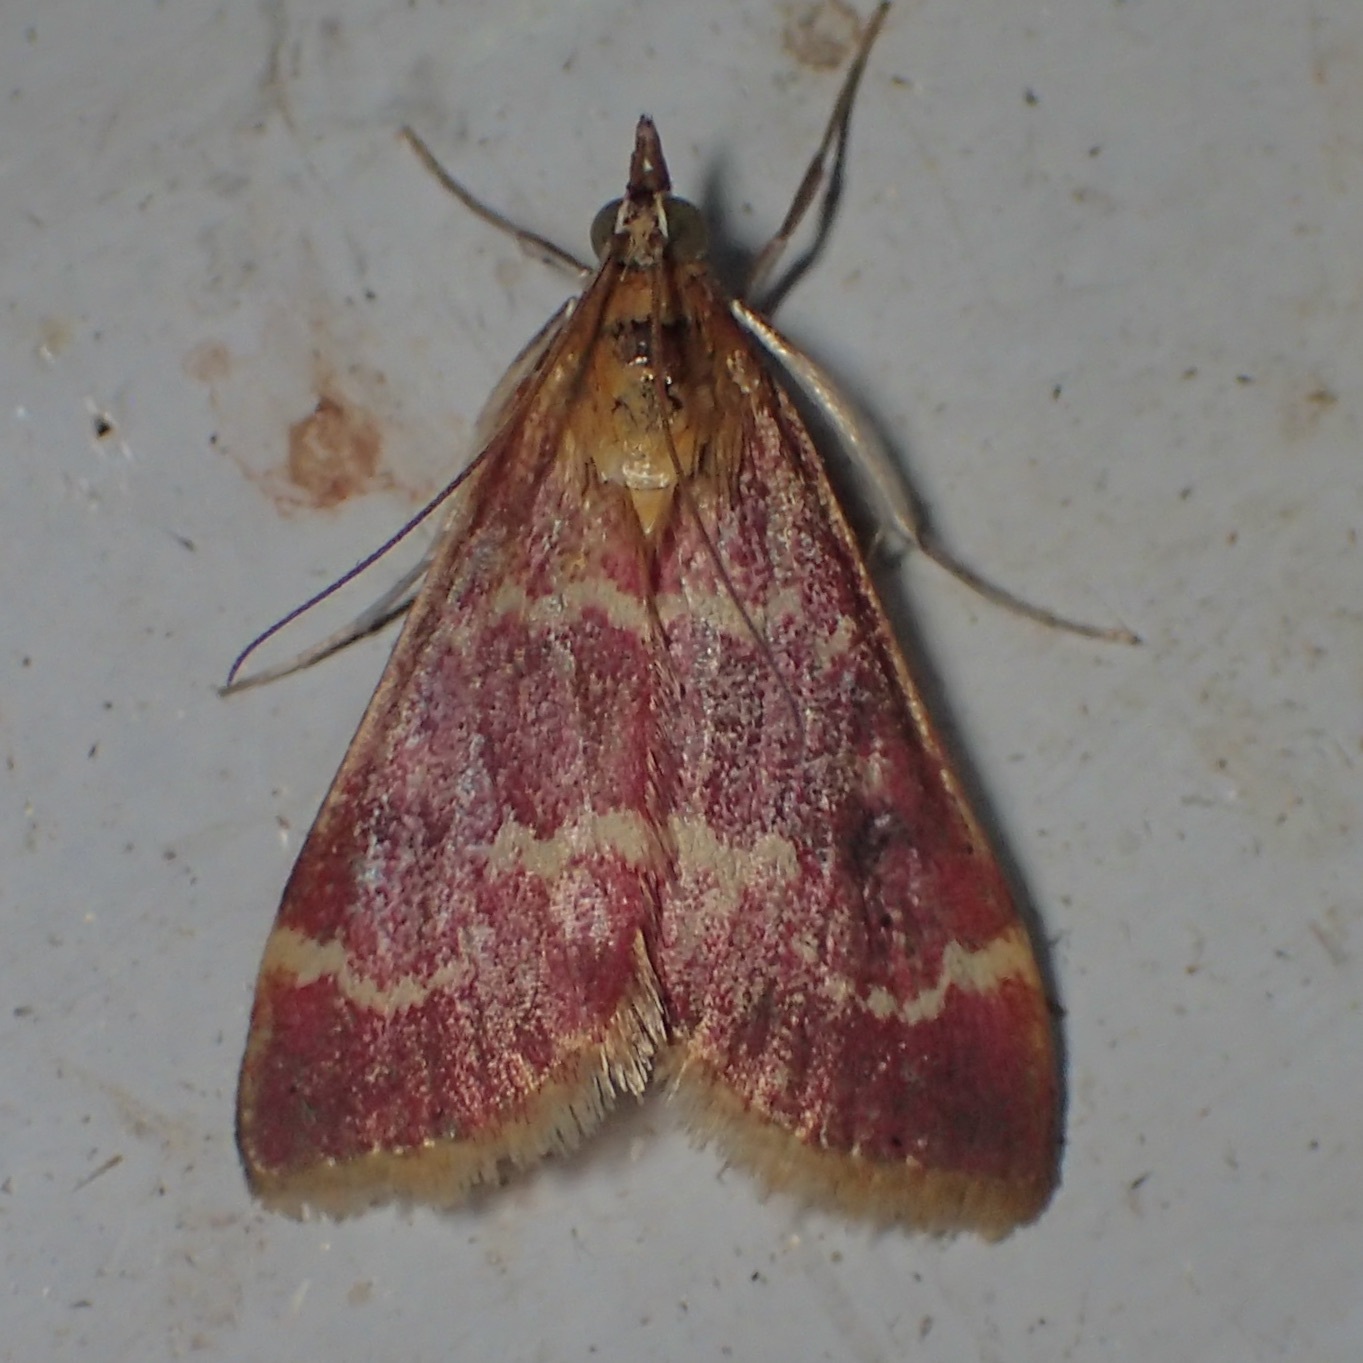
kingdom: Animalia
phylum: Arthropoda
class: Insecta
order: Lepidoptera
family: Crambidae
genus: Pyrausta
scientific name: Pyrausta signatalis
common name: Raspberry pyrausta moth
